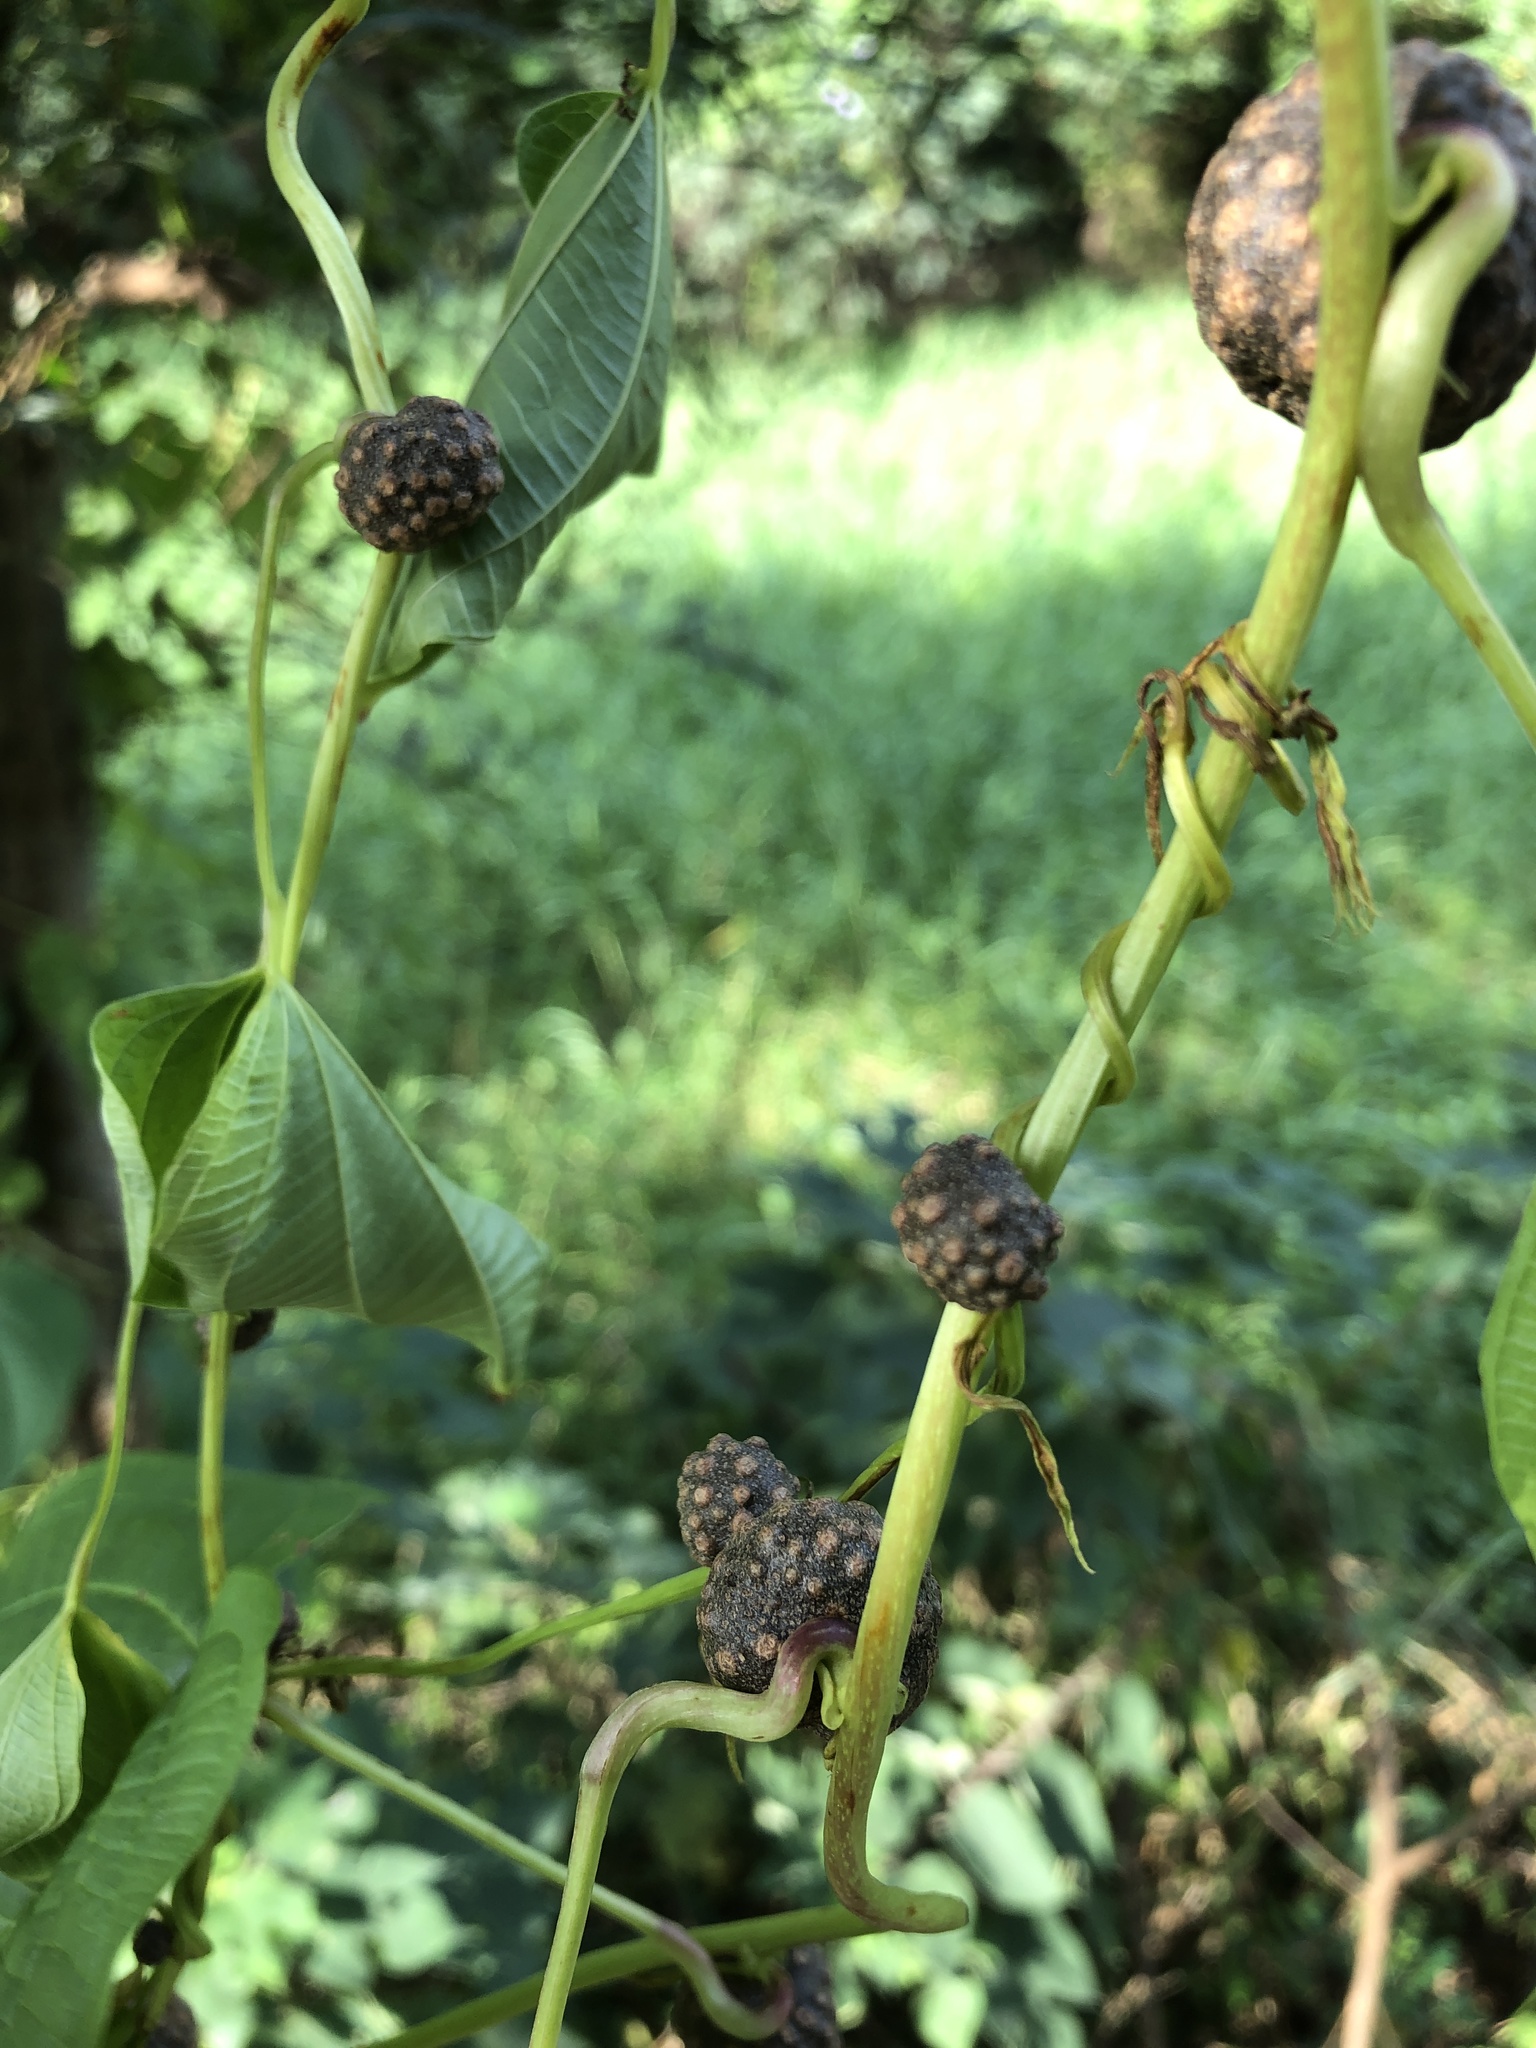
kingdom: Plantae
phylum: Tracheophyta
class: Liliopsida
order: Dioscoreales
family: Dioscoreaceae
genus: Dioscorea
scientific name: Dioscorea bulbifera
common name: Air yam
